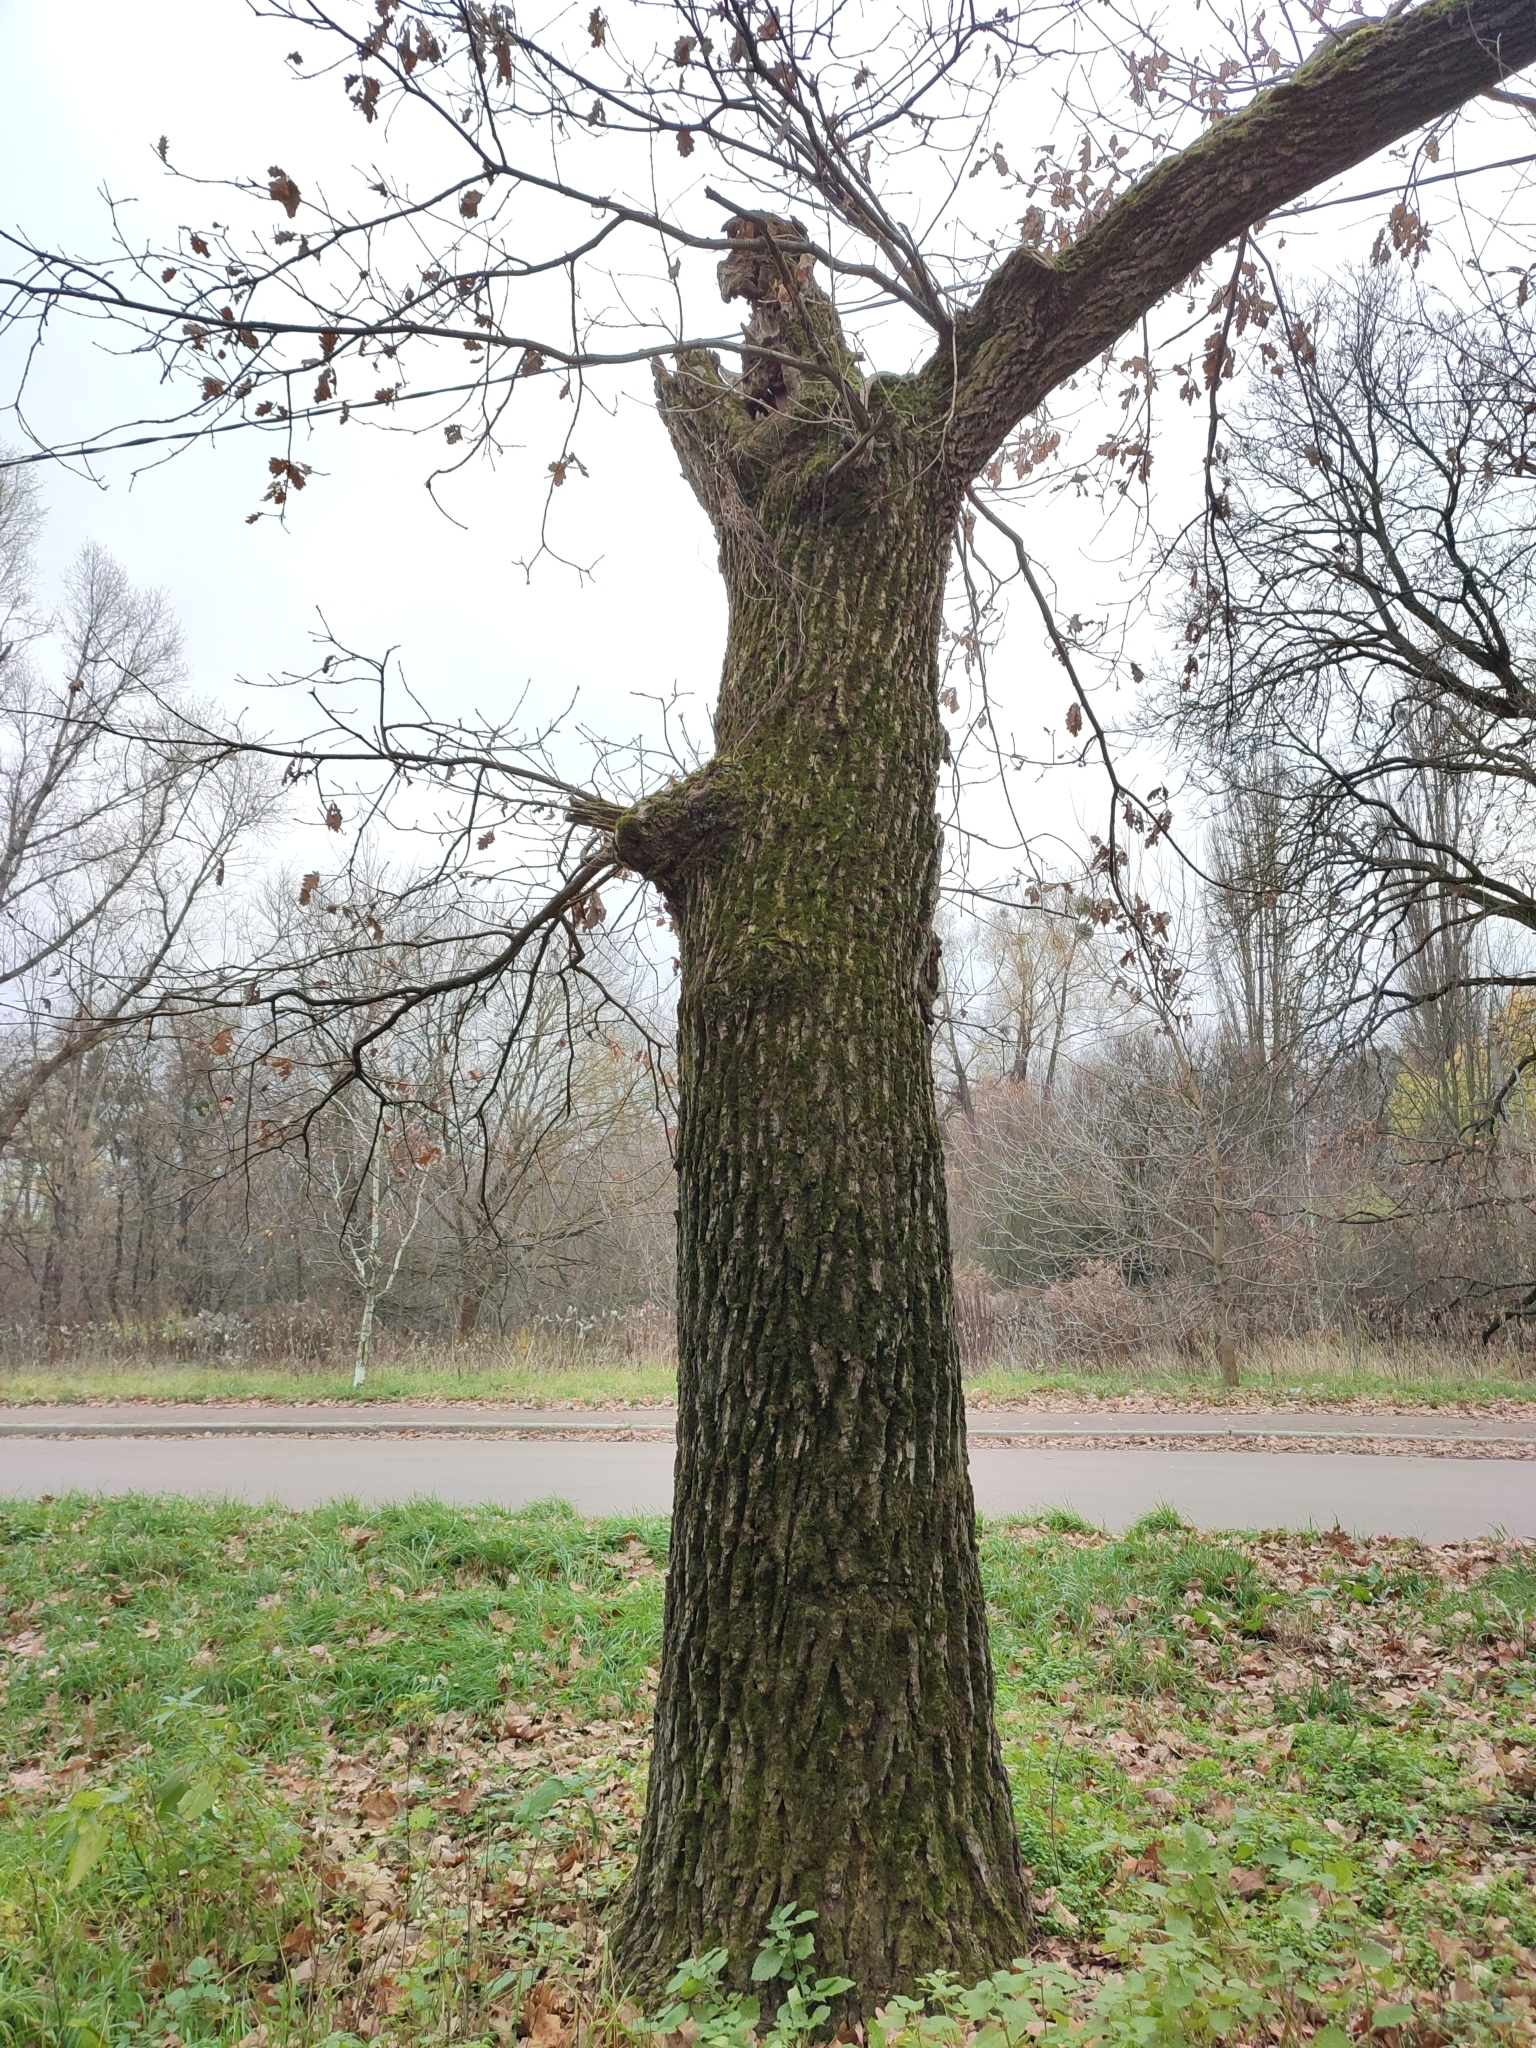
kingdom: Plantae
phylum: Tracheophyta
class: Magnoliopsida
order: Fagales
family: Fagaceae
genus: Quercus
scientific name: Quercus robur
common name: Pedunculate oak
